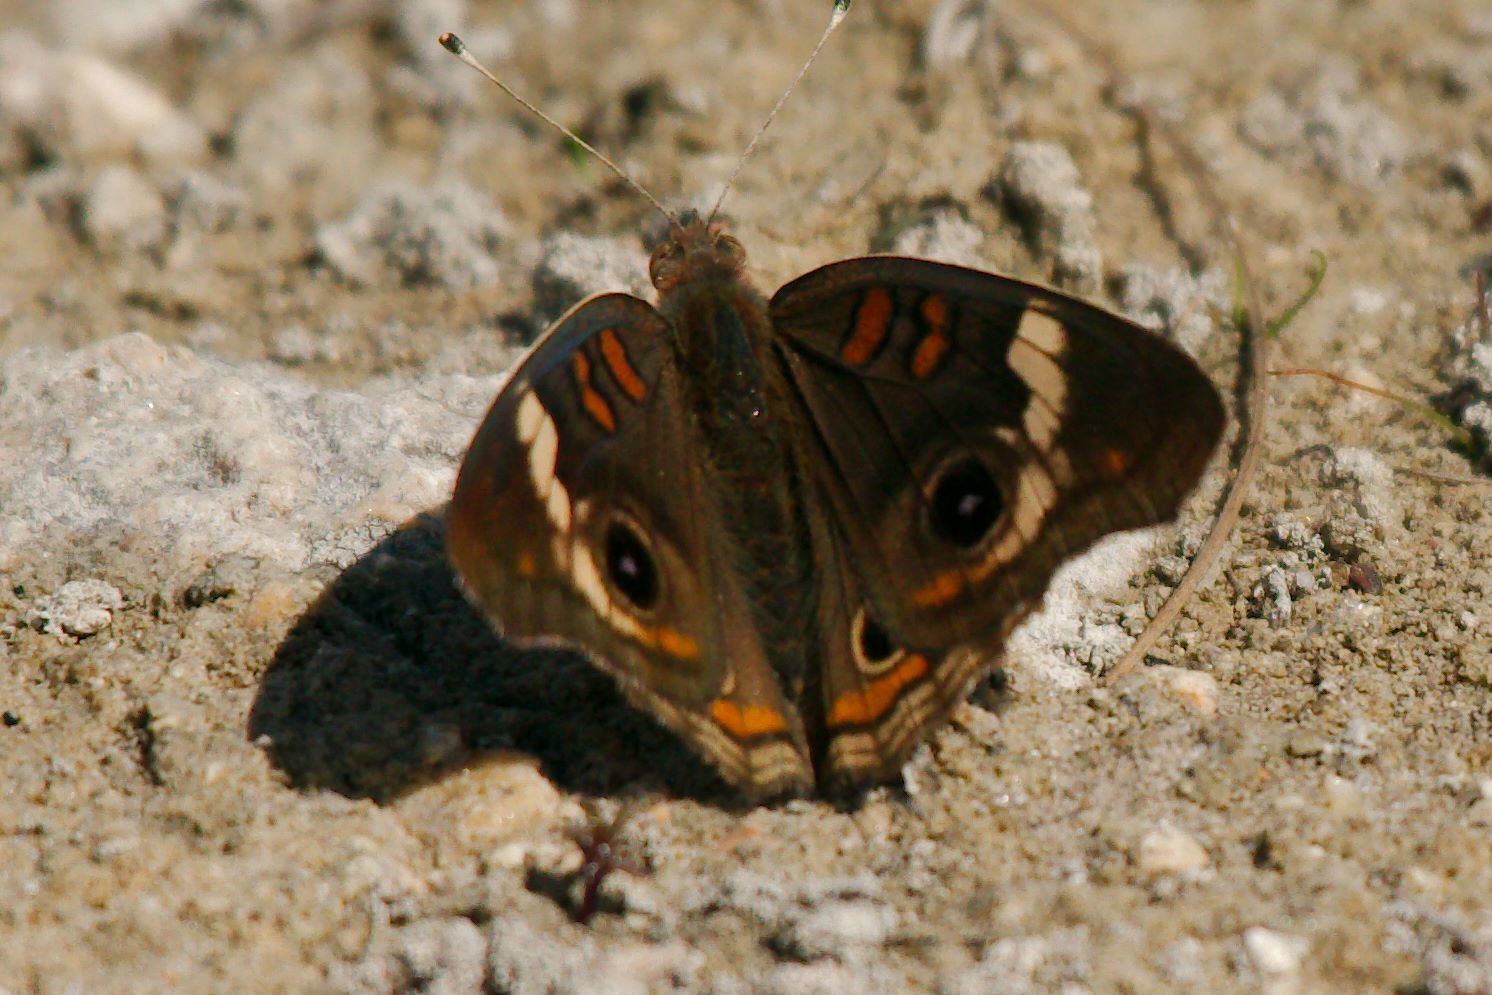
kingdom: Animalia
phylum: Arthropoda
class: Insecta
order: Lepidoptera
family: Nymphalidae
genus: Junonia
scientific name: Junonia coenia
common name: Common buckeye
